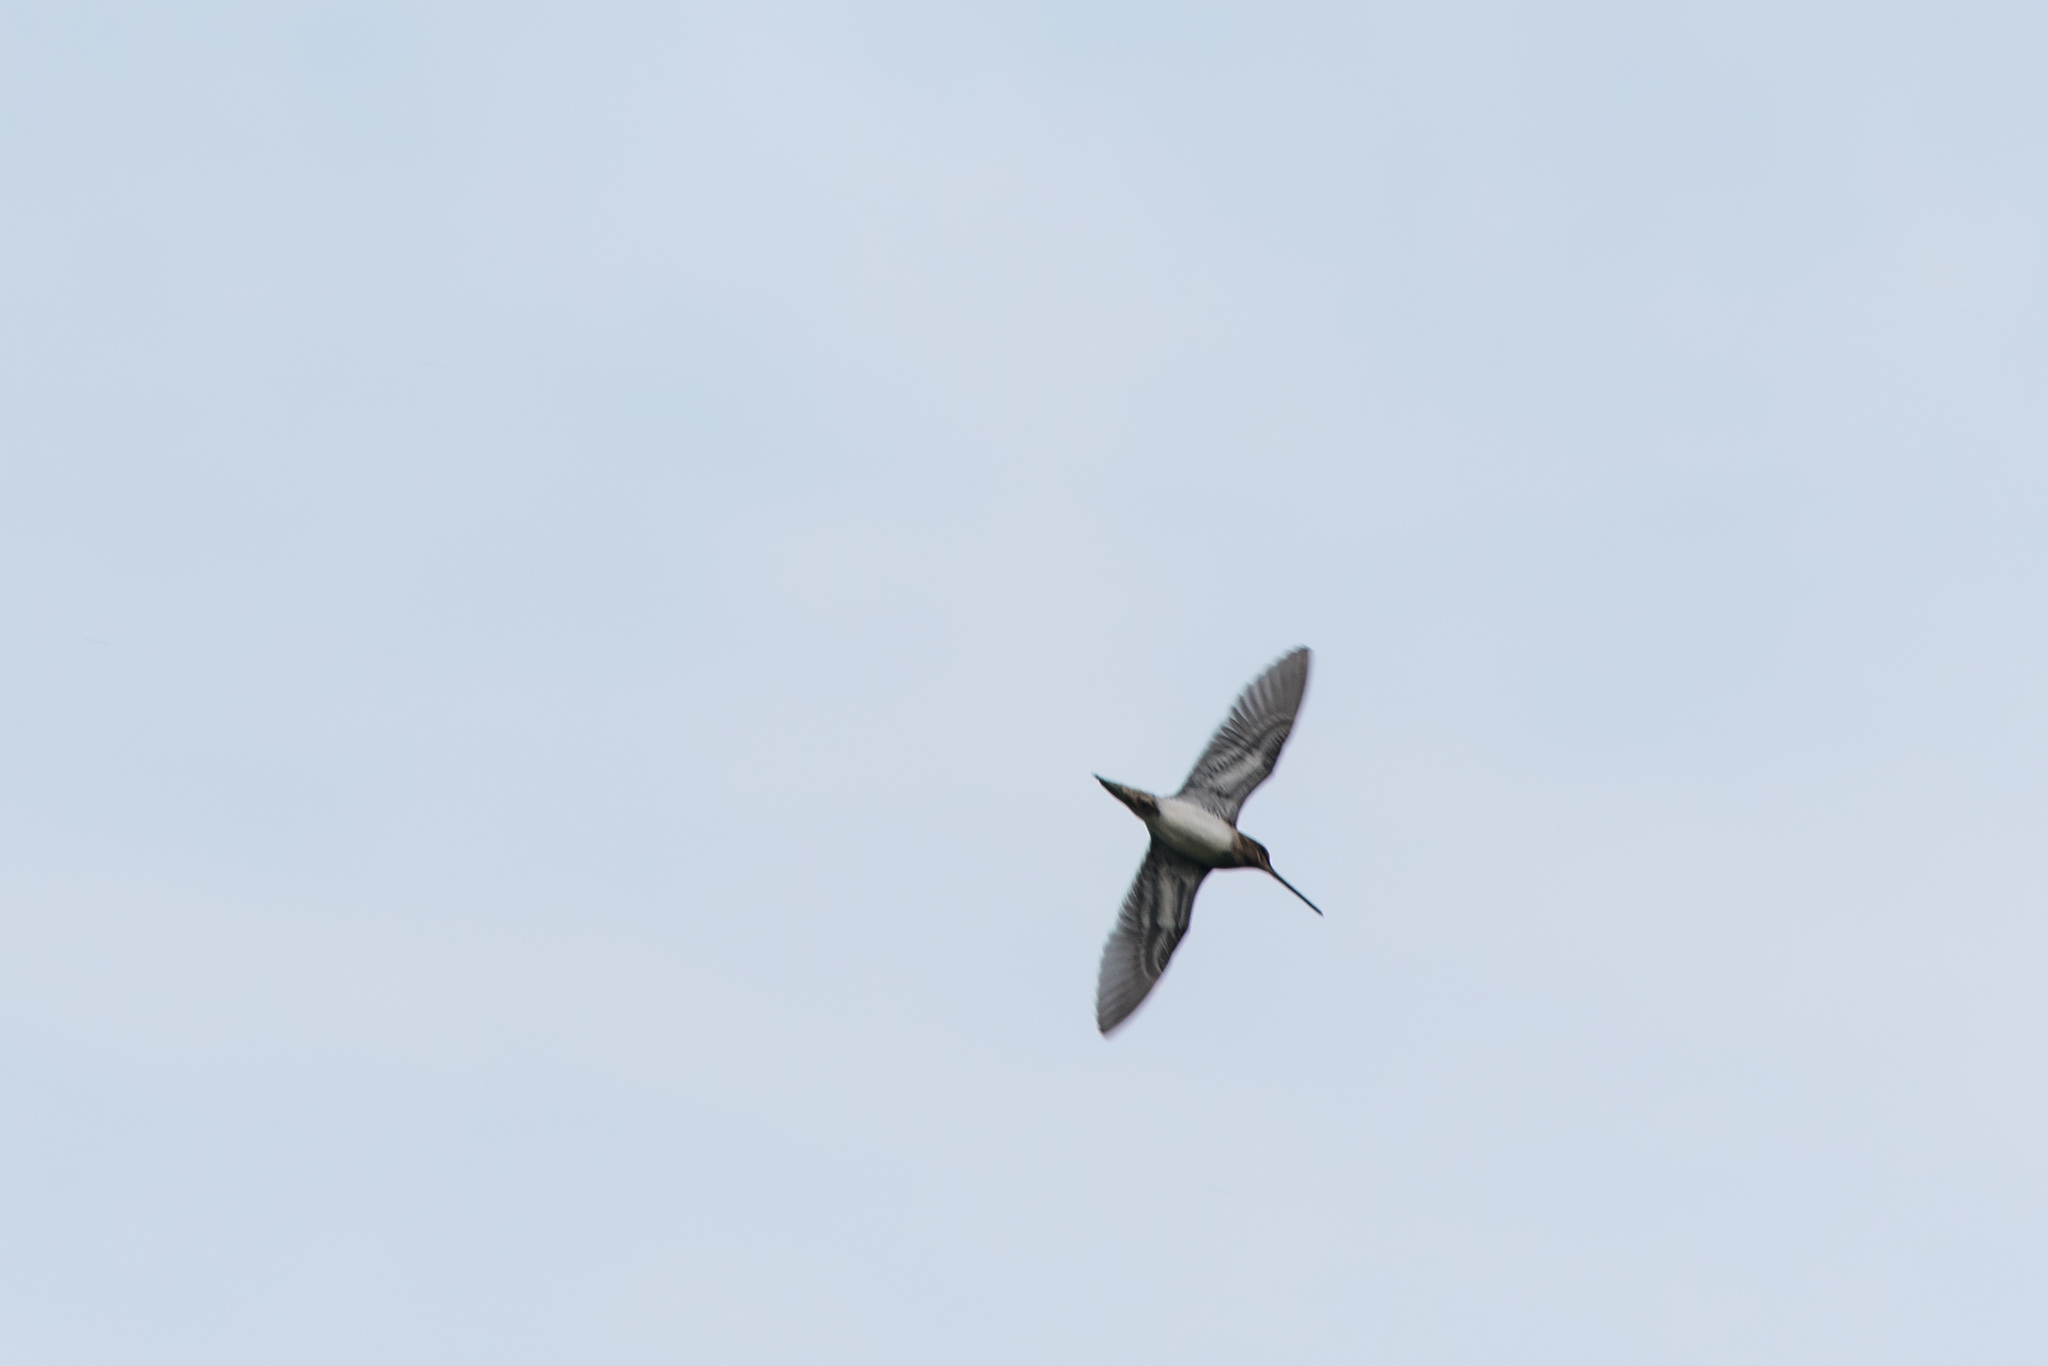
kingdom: Animalia
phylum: Chordata
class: Aves
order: Charadriiformes
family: Scolopacidae
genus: Gallinago
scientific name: Gallinago gallinago
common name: Common snipe
